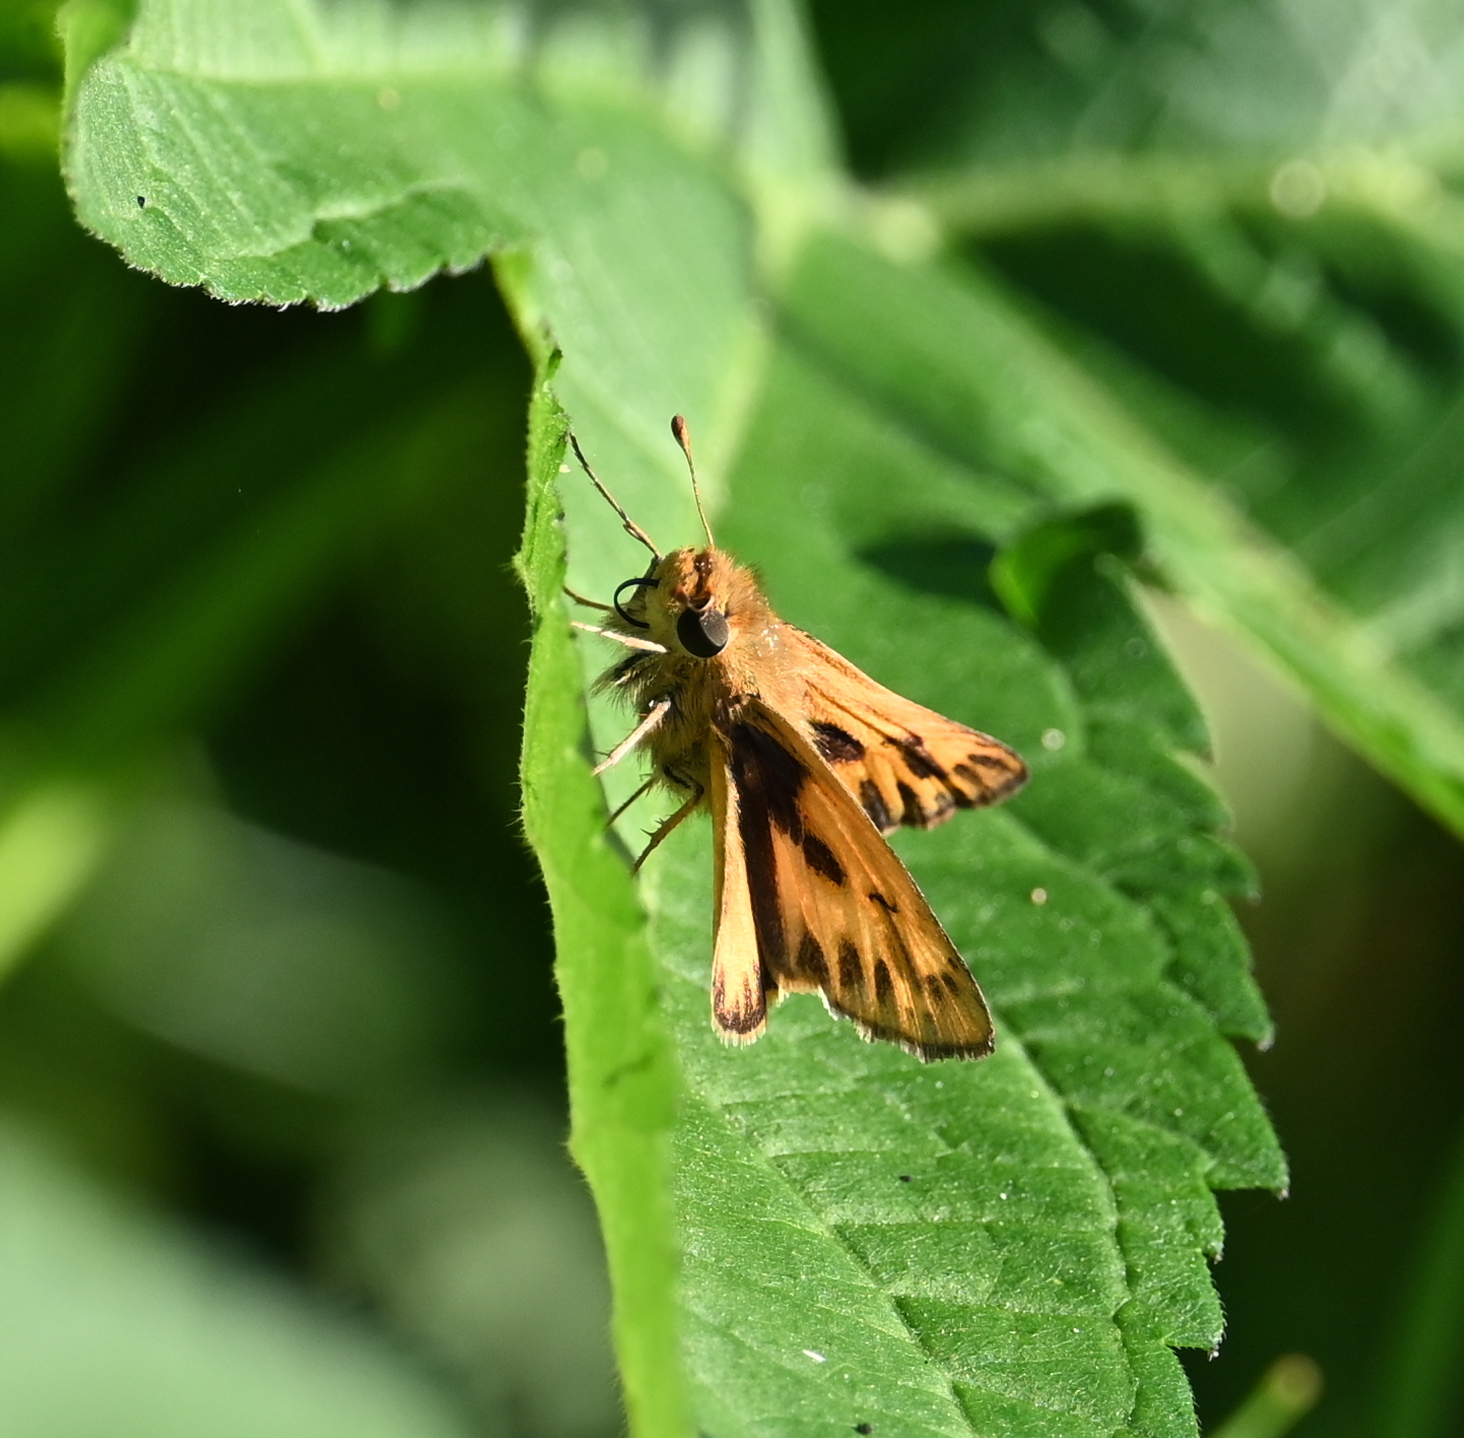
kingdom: Animalia
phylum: Arthropoda
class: Insecta
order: Lepidoptera
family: Hesperiidae
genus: Hylephila
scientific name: Hylephila phyleus
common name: Fiery skipper
